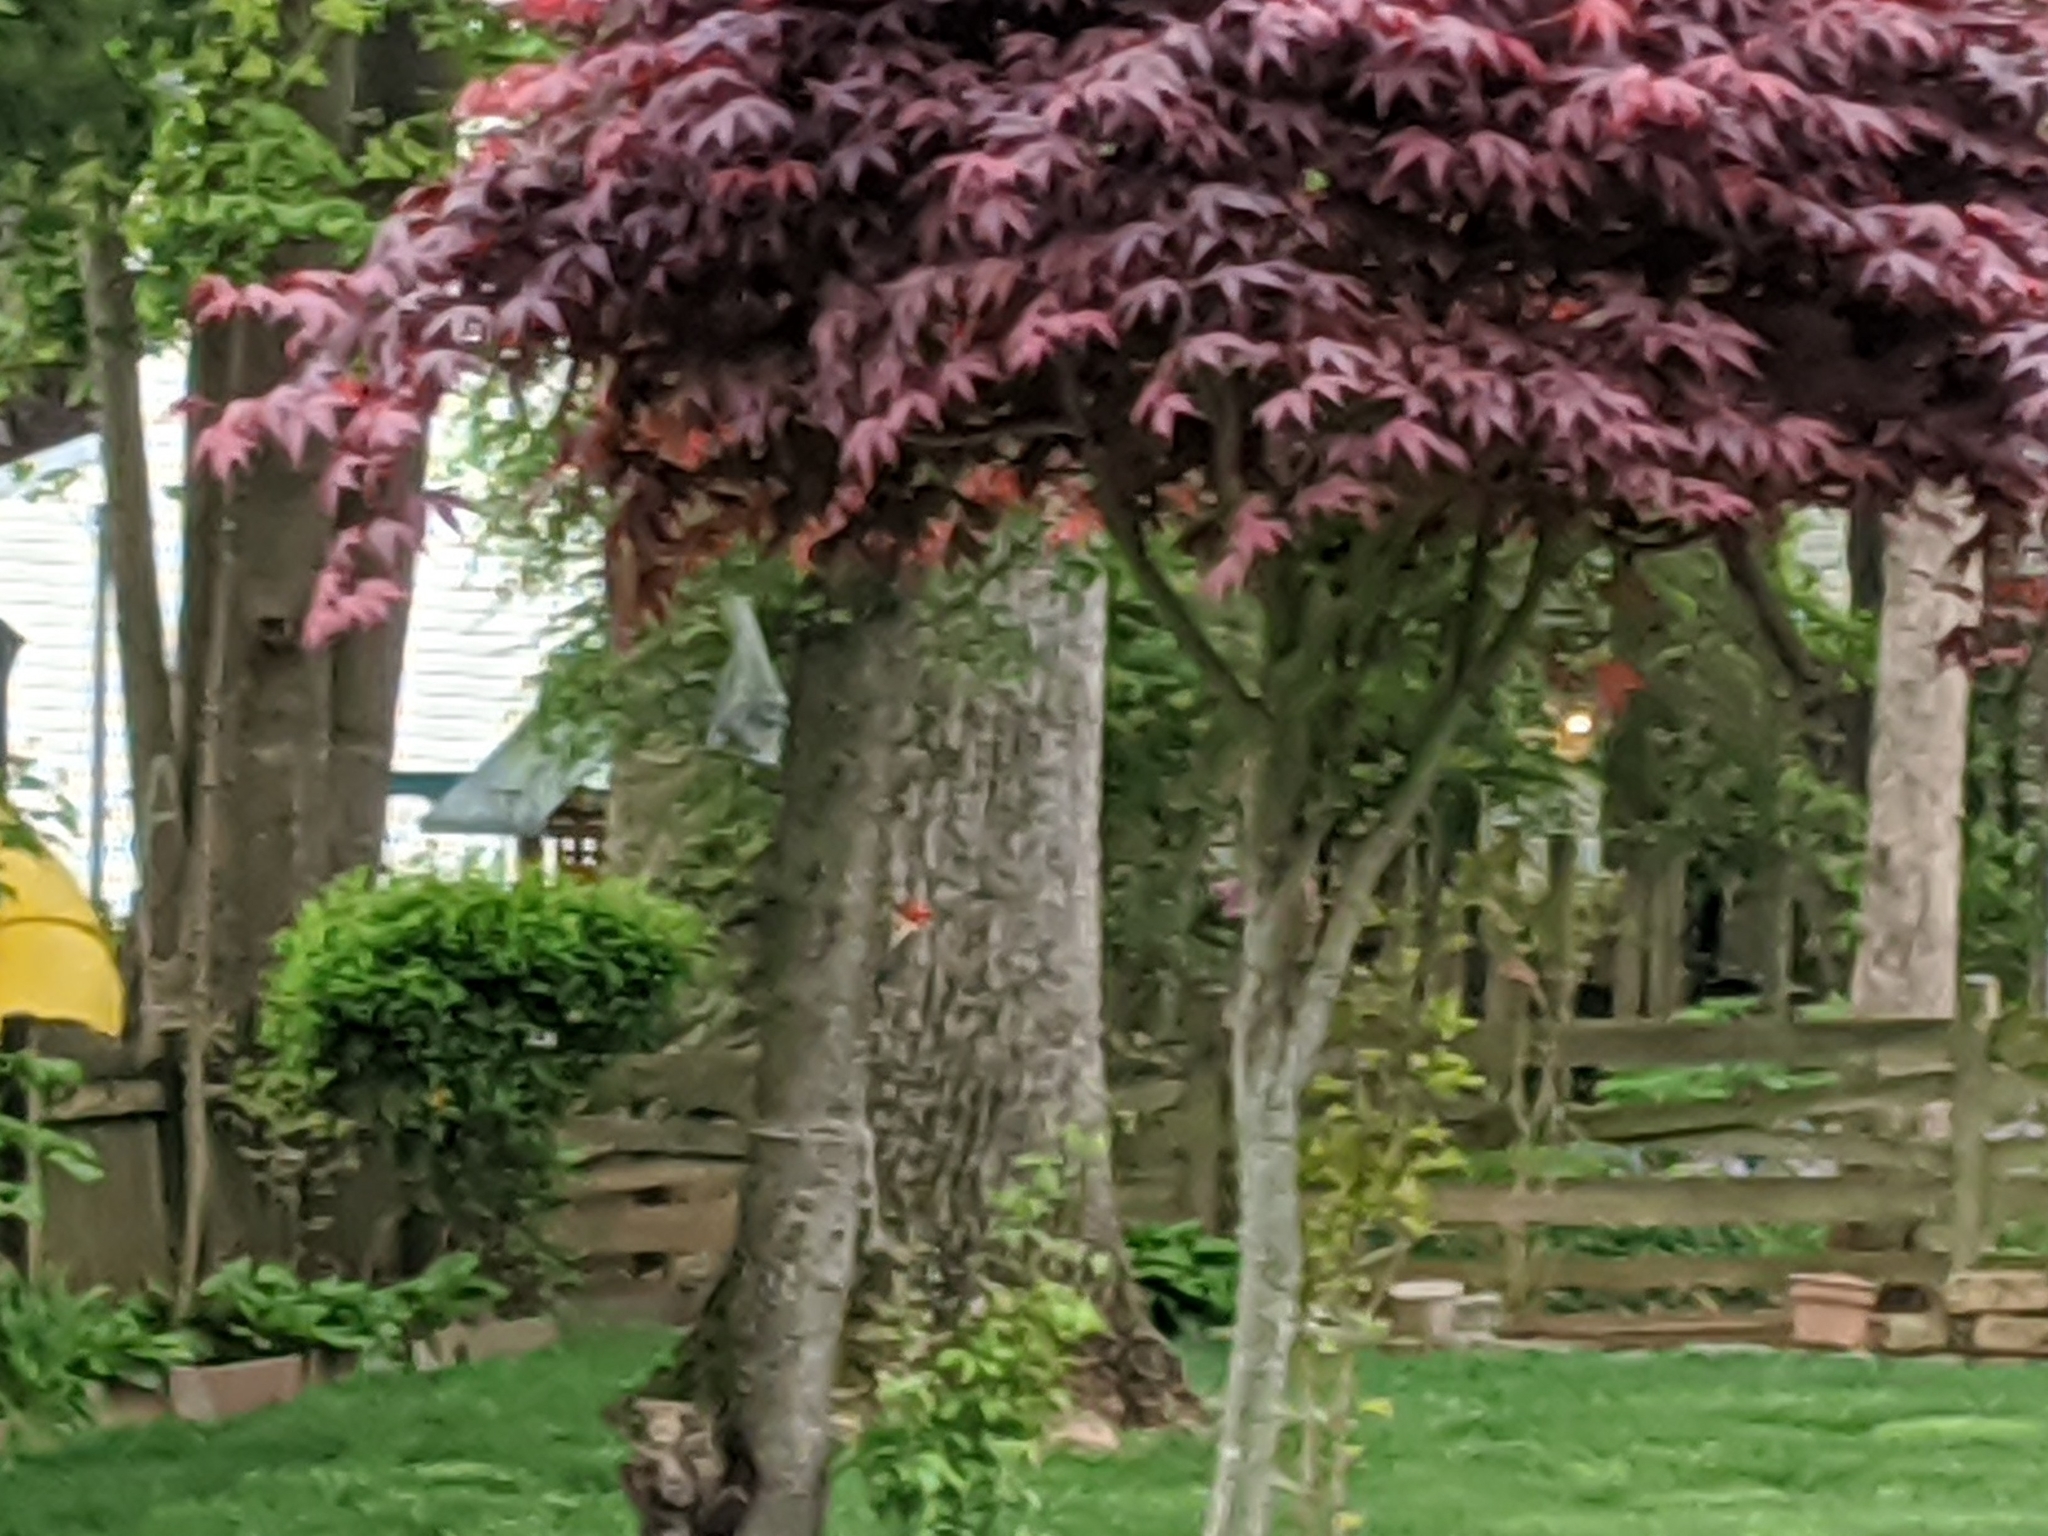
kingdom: Animalia
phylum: Chordata
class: Aves
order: Piciformes
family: Picidae
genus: Dryocopus
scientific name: Dryocopus pileatus
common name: Pileated woodpecker
